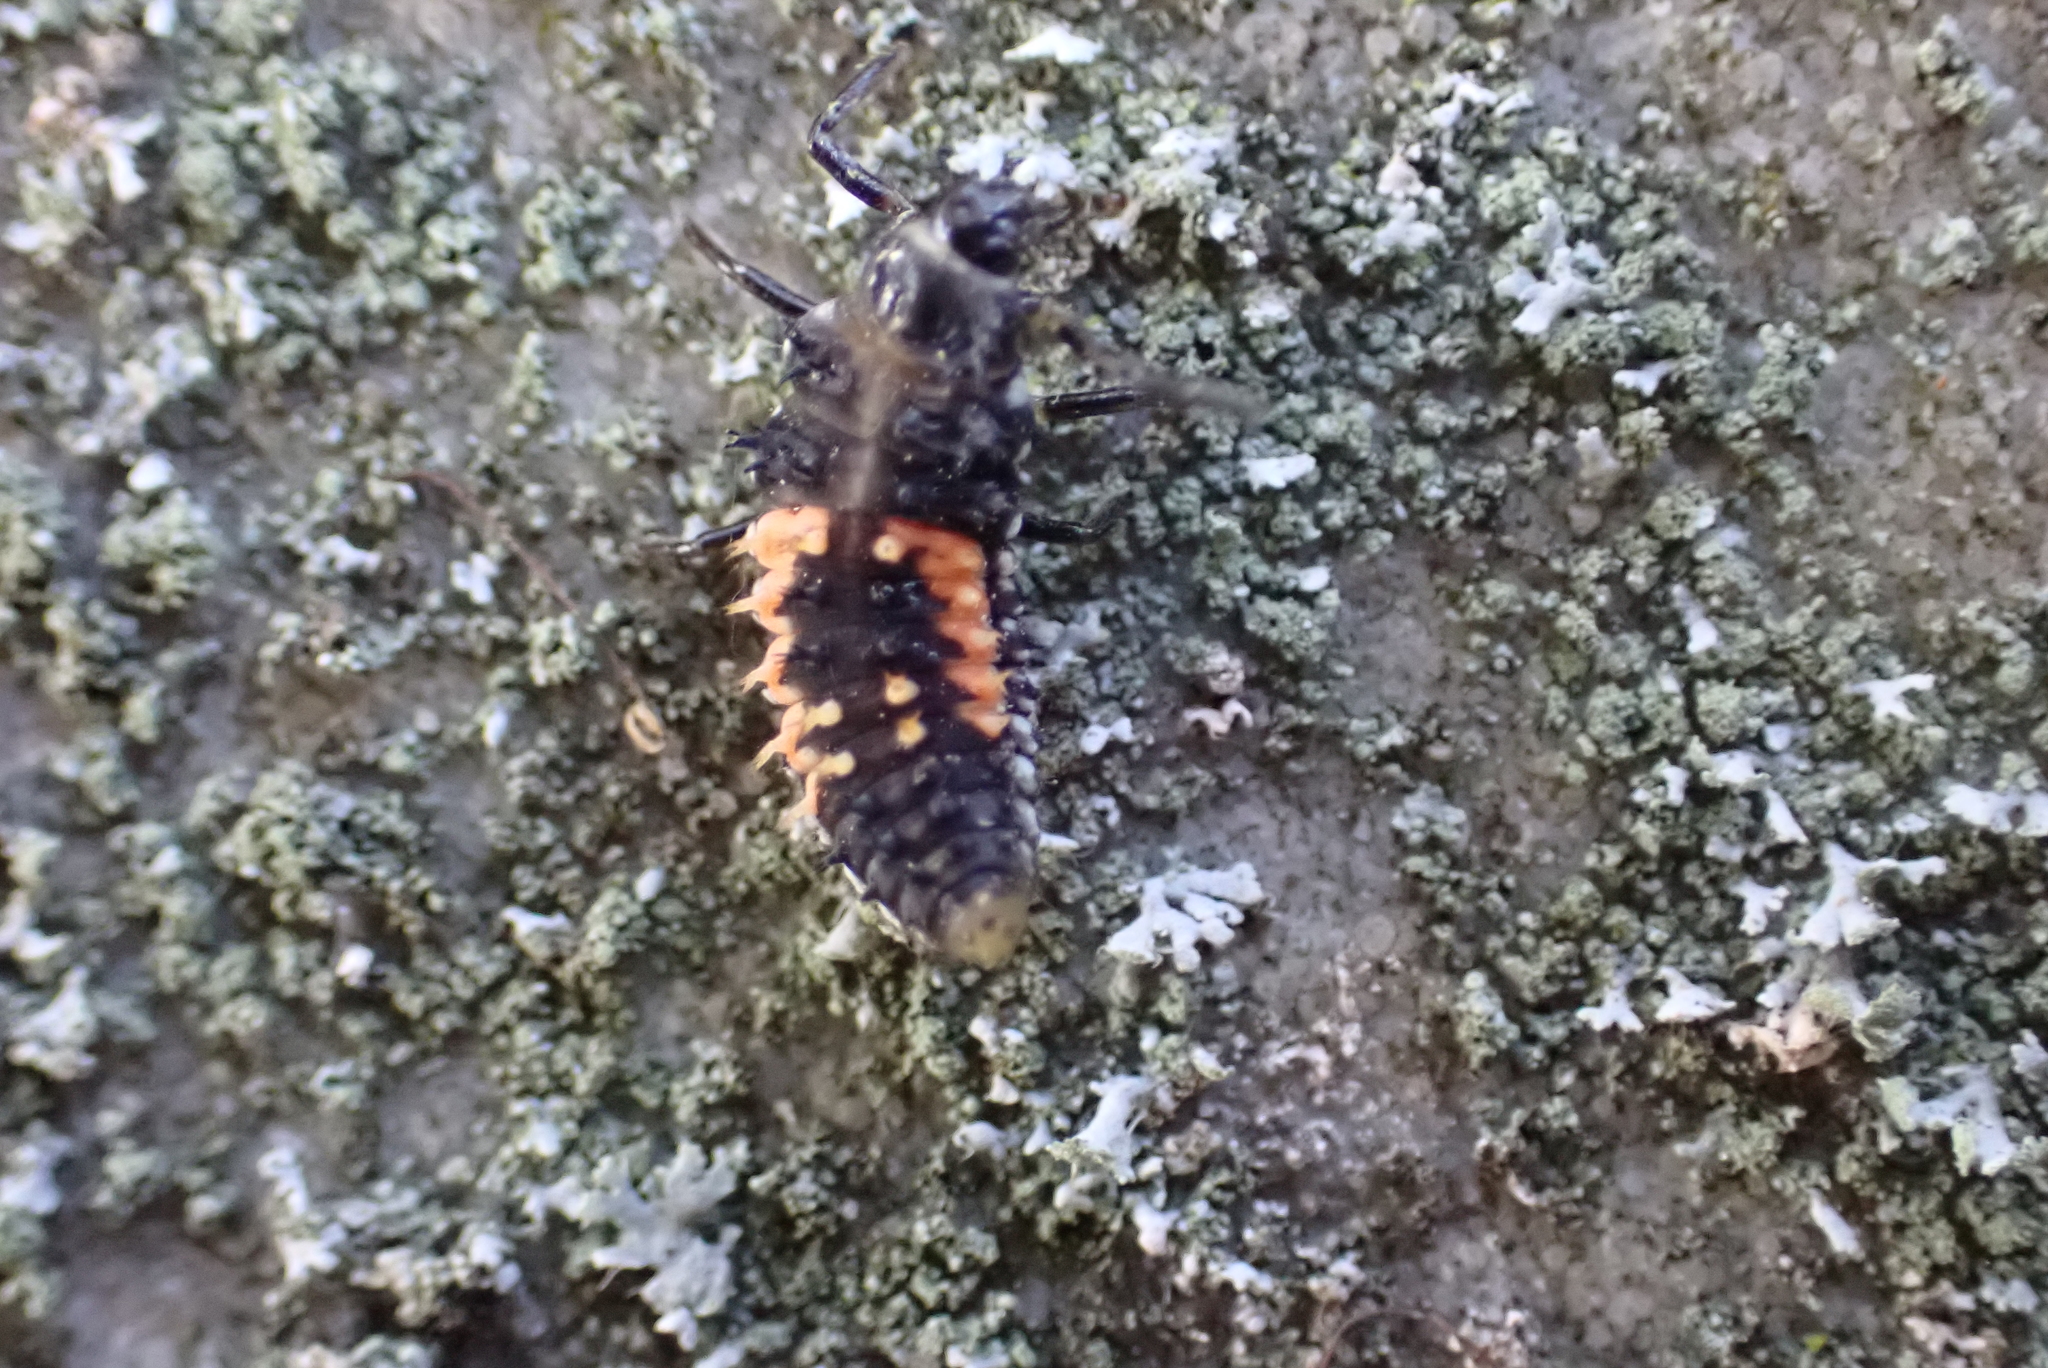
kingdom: Animalia
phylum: Arthropoda
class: Insecta
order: Coleoptera
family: Coccinellidae
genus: Harmonia
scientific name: Harmonia axyridis
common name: Harlequin ladybird
